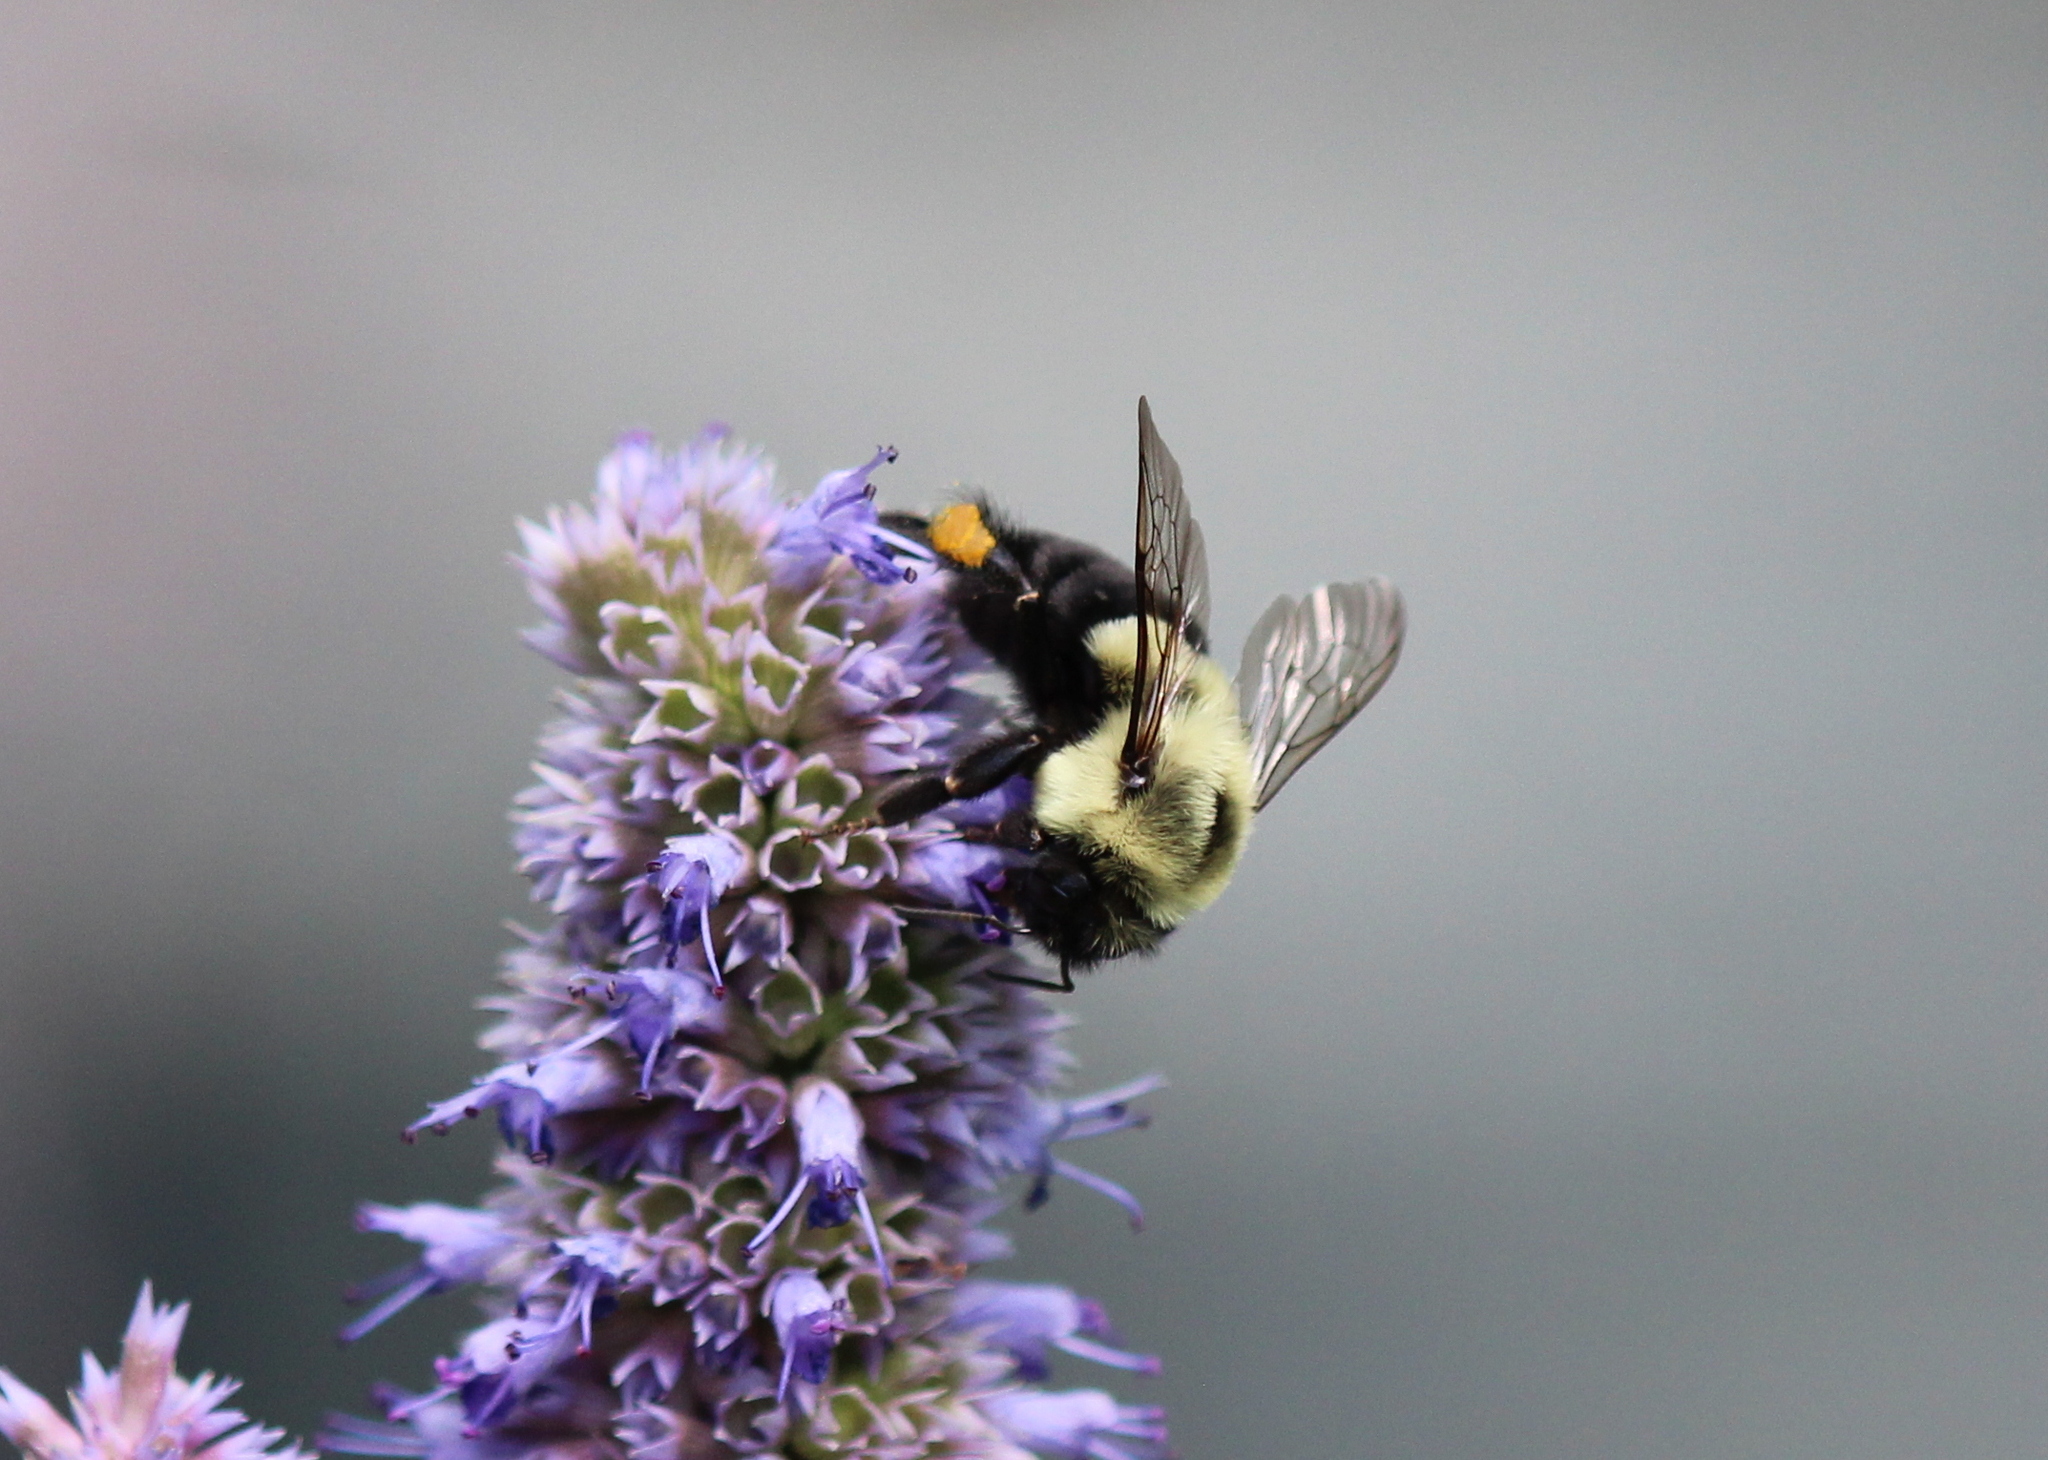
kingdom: Animalia
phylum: Arthropoda
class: Insecta
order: Hymenoptera
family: Apidae
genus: Bombus
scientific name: Bombus impatiens
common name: Common eastern bumble bee
